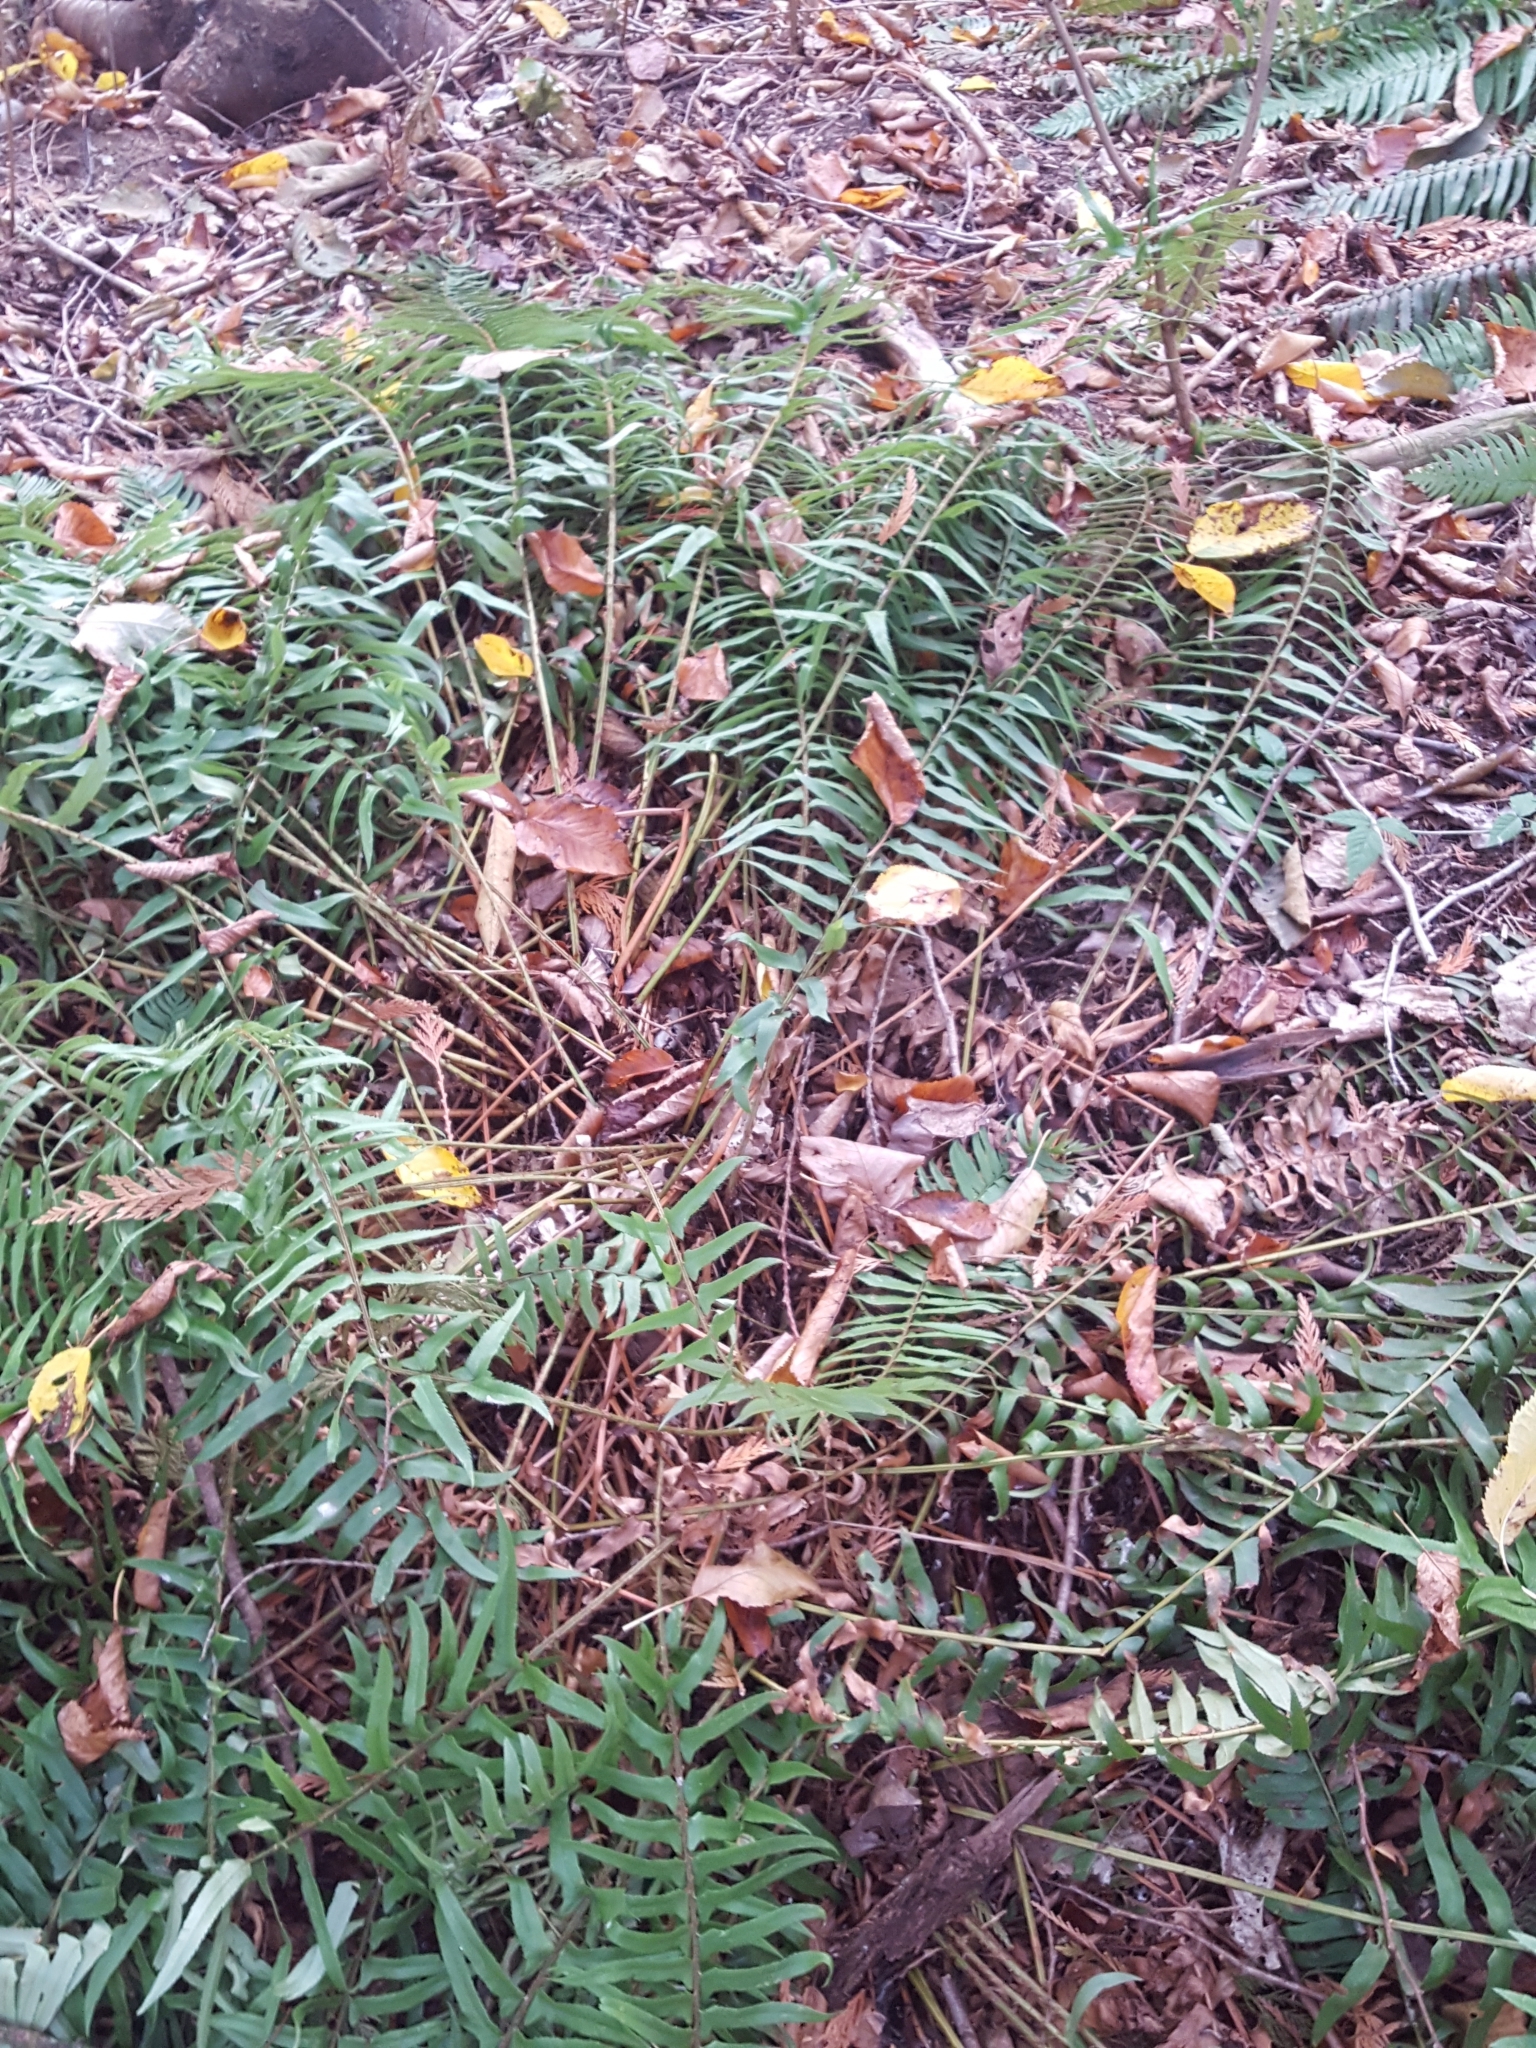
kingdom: Plantae
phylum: Tracheophyta
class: Polypodiopsida
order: Polypodiales
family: Dryopteridaceae
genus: Polystichum
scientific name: Polystichum munitum
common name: Western sword-fern
